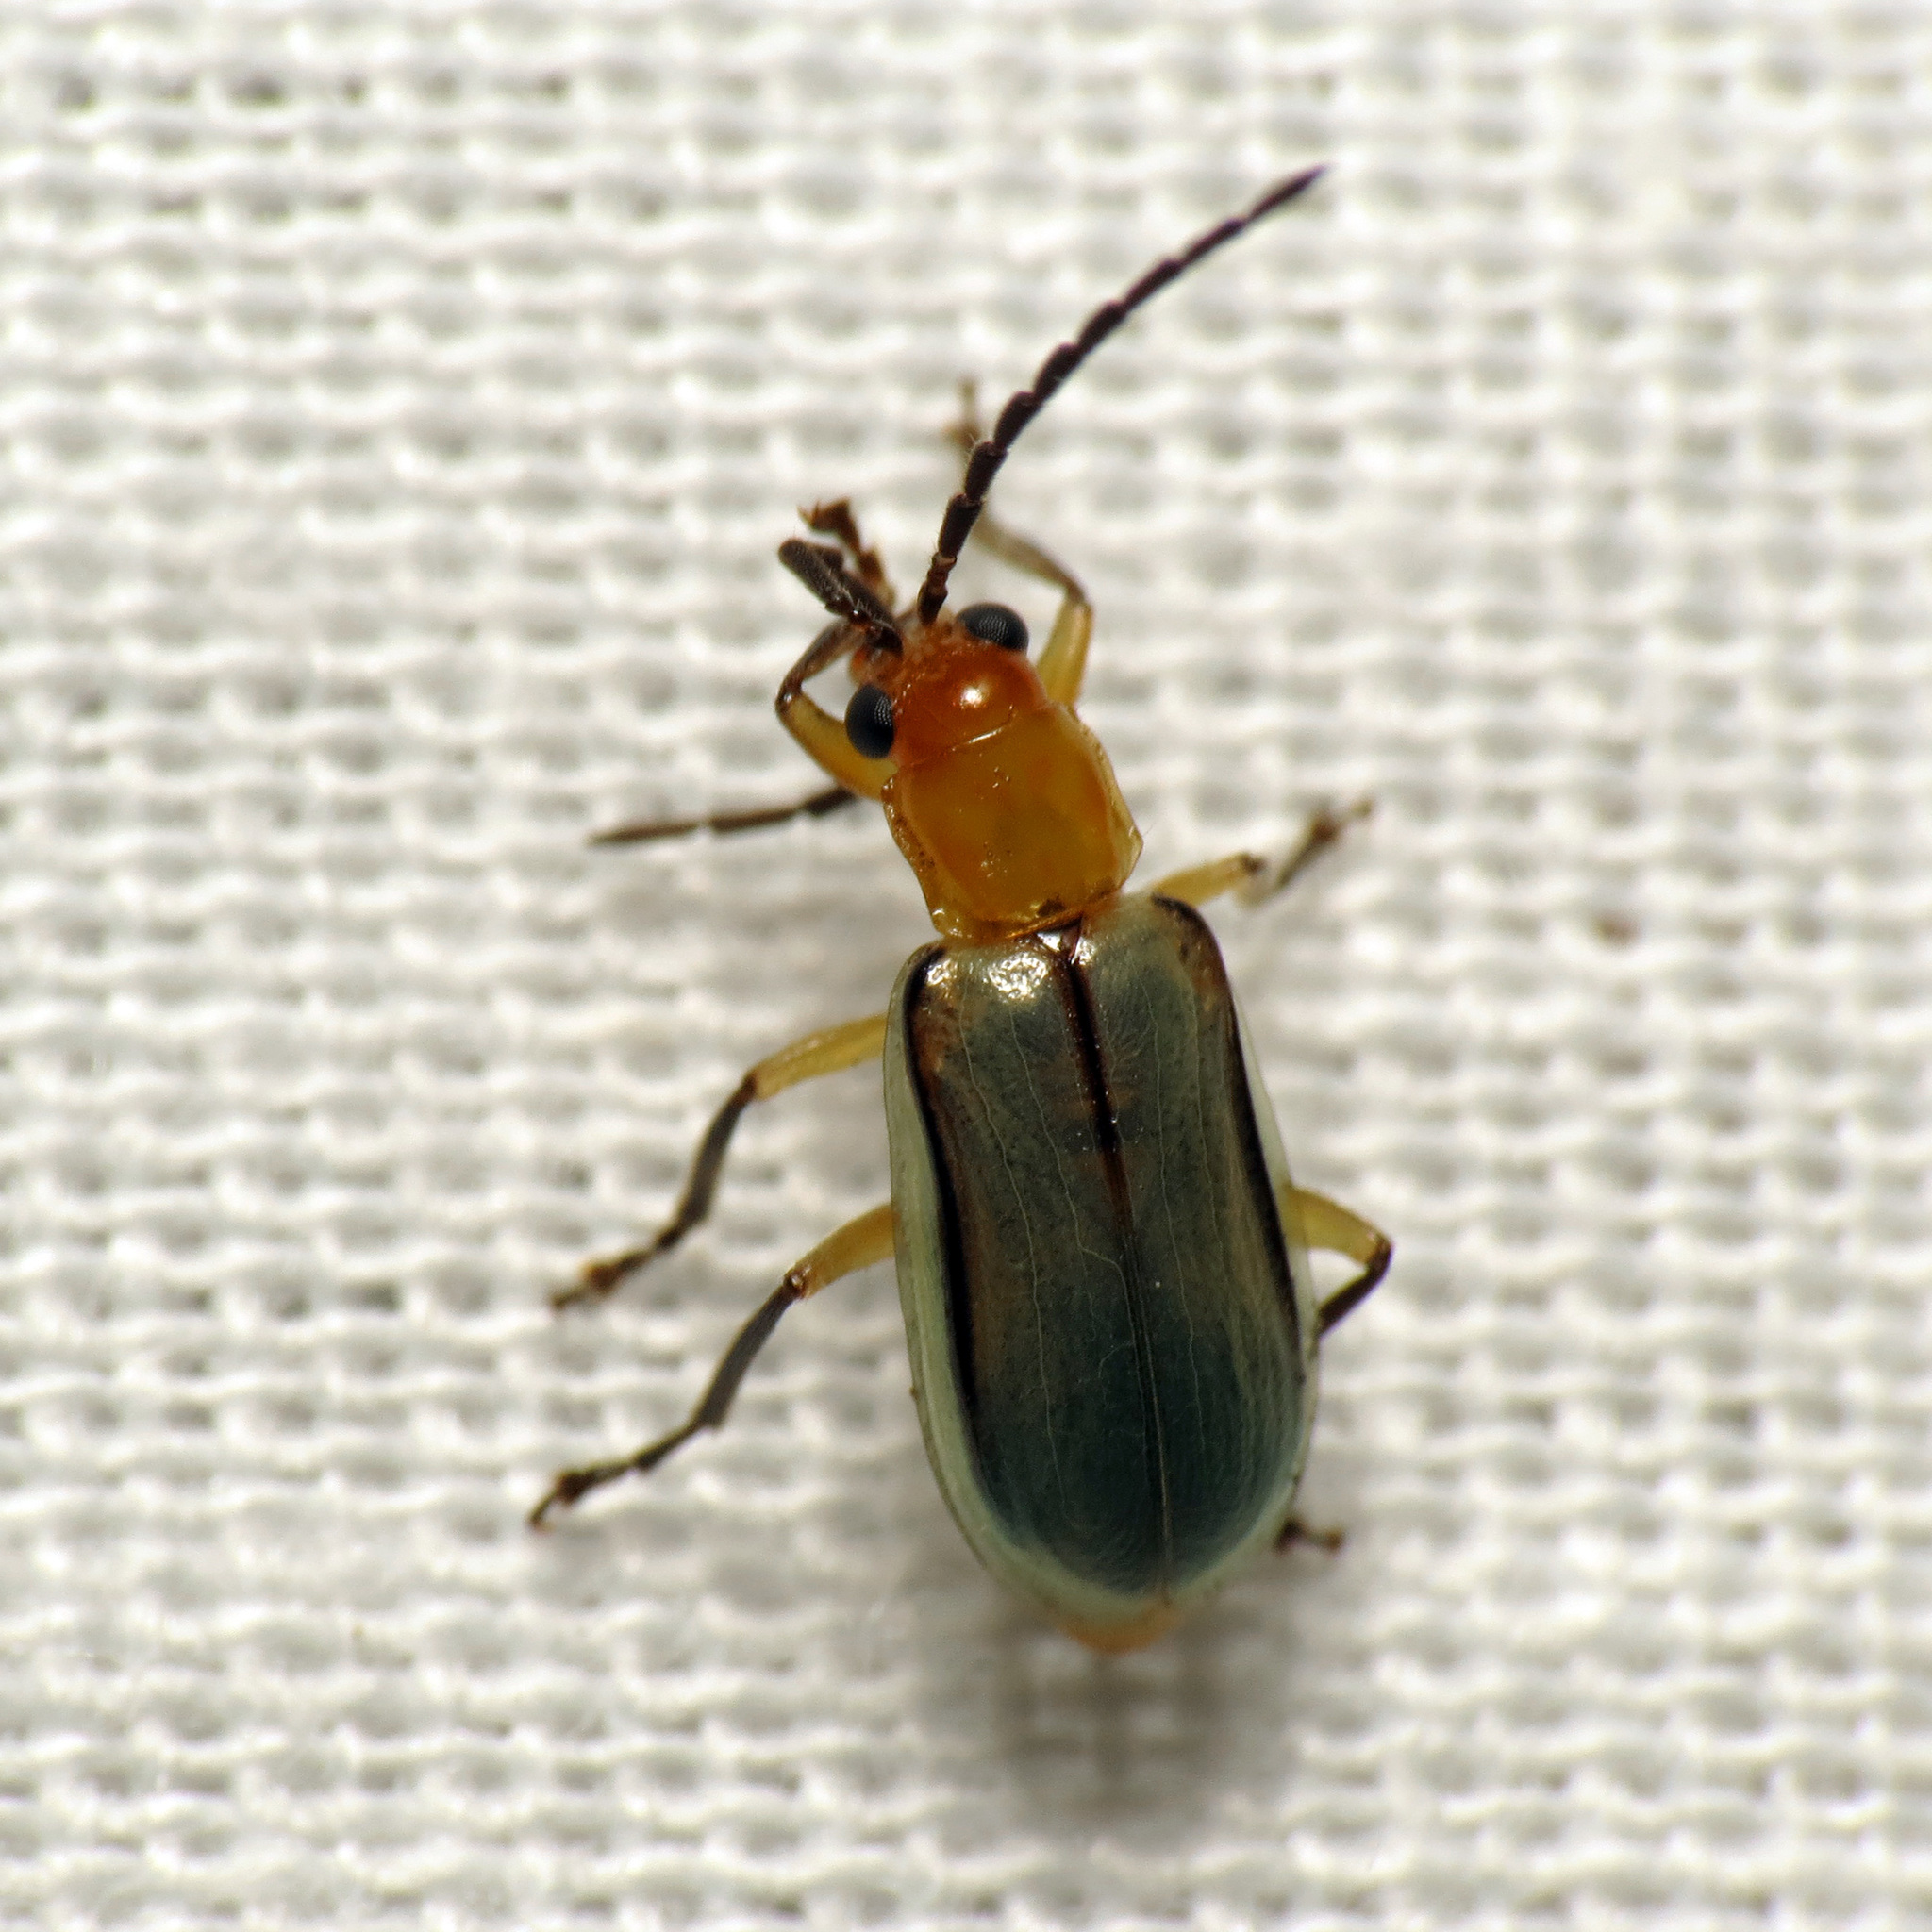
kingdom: Animalia
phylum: Arthropoda
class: Insecta
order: Coleoptera
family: Chrysomelidae
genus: Diabrotica
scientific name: Diabrotica longicornis
